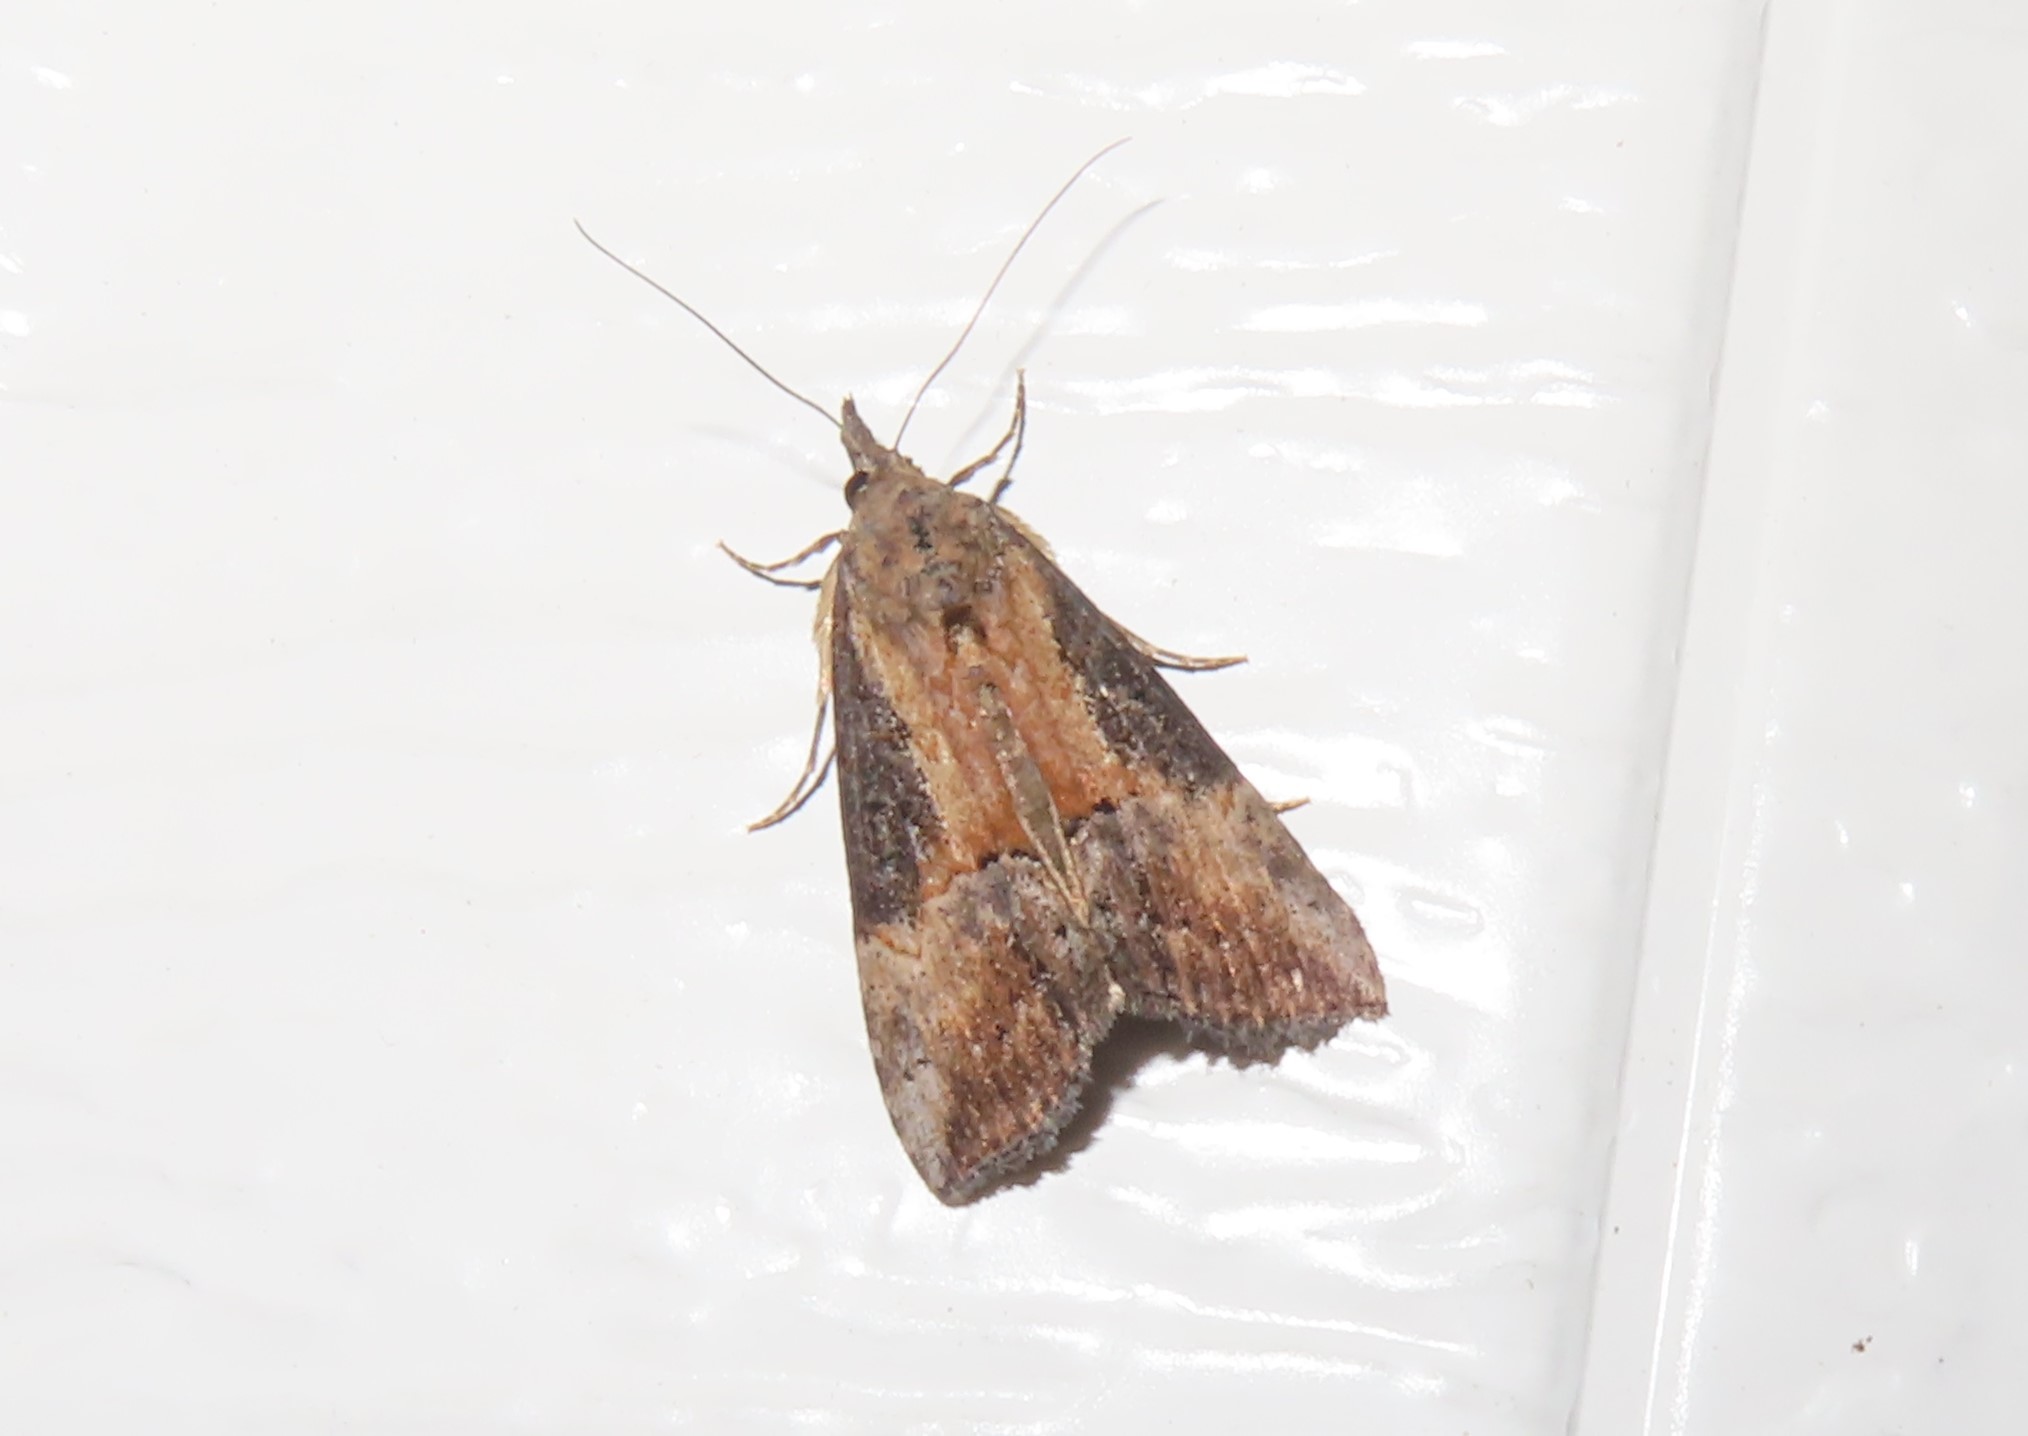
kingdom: Animalia
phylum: Arthropoda
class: Insecta
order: Lepidoptera
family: Erebidae
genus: Hypena
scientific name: Hypena scabra
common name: Green cloverworm
